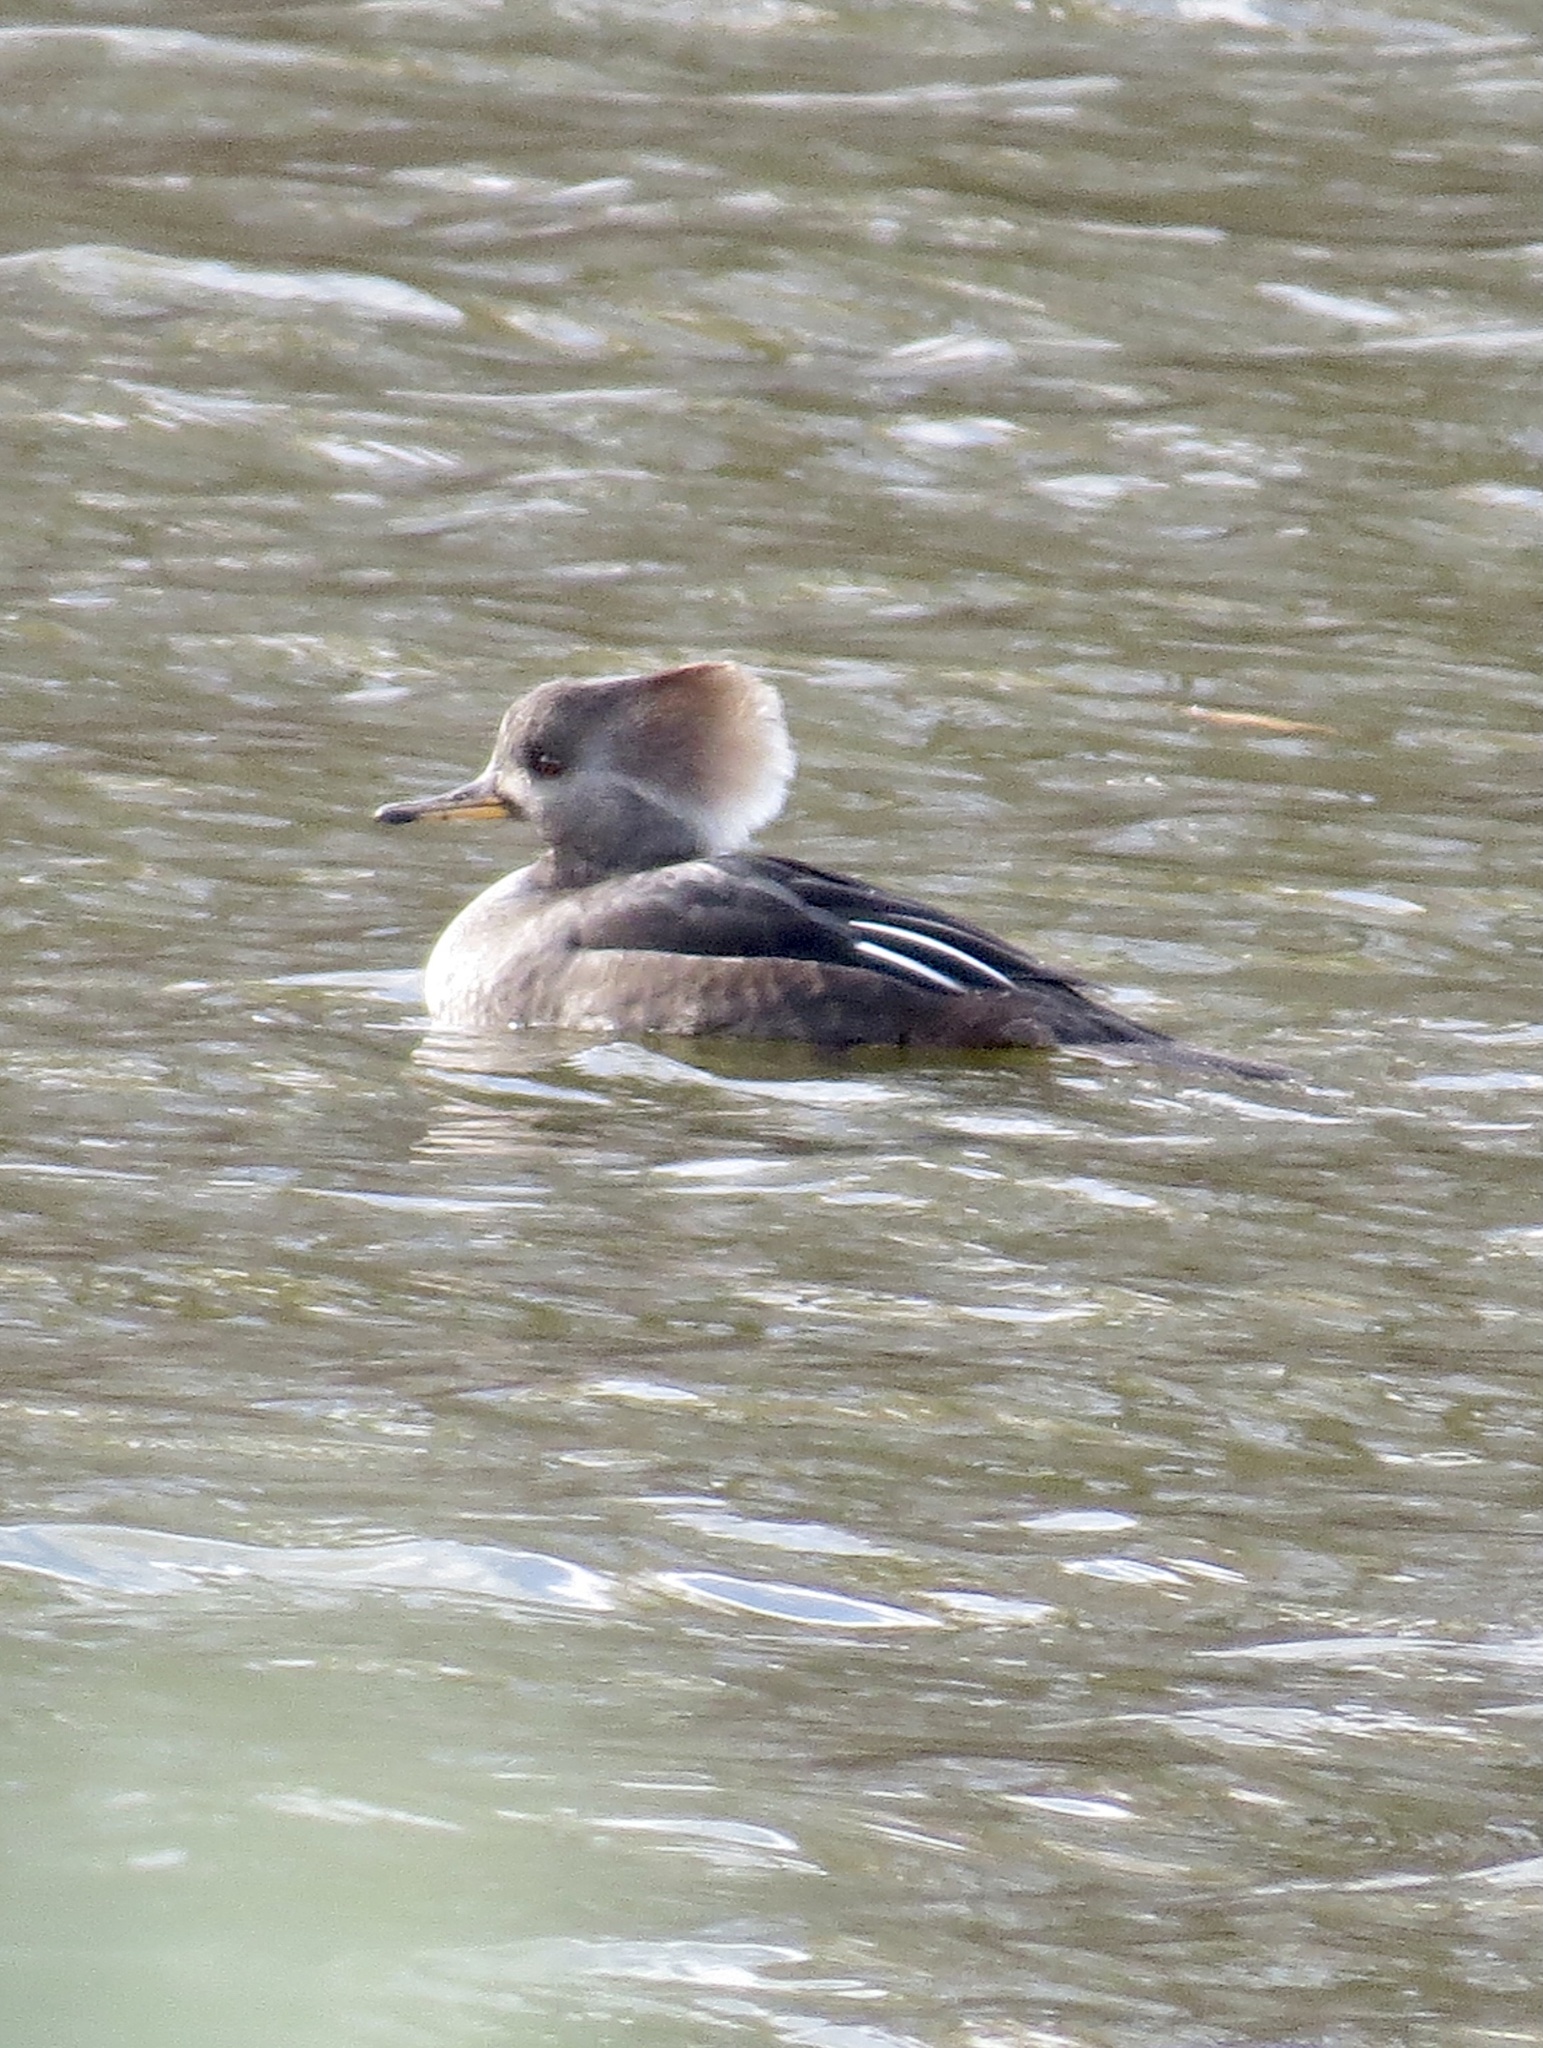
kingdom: Animalia
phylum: Chordata
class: Aves
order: Anseriformes
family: Anatidae
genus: Lophodytes
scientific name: Lophodytes cucullatus
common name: Hooded merganser
